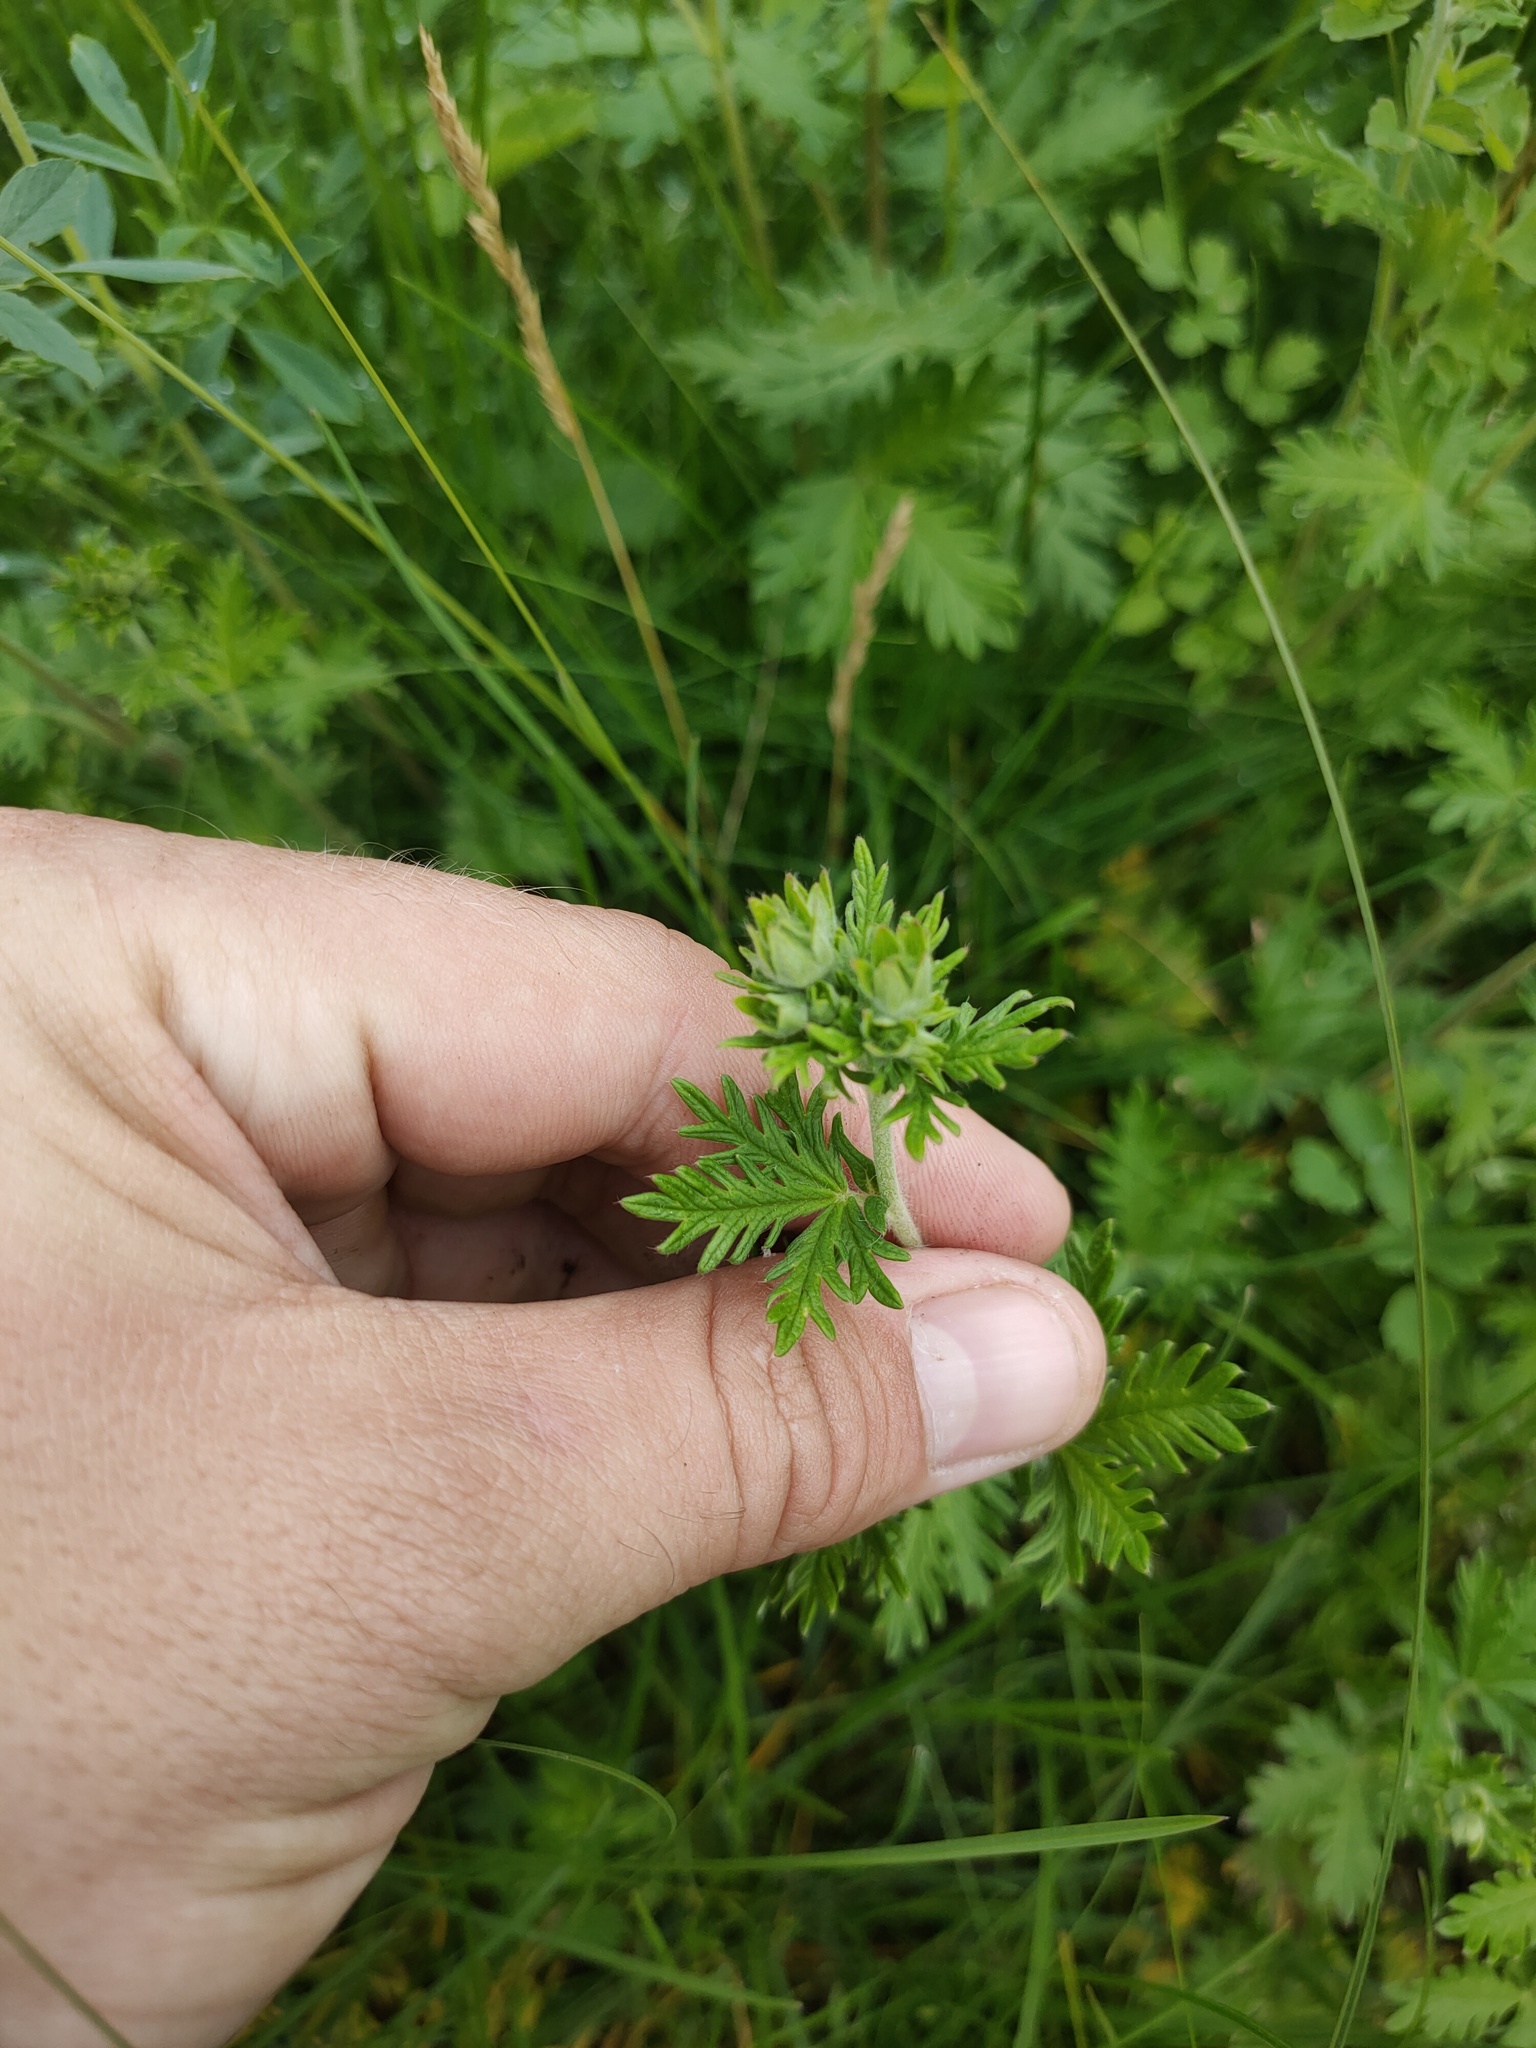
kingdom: Plantae
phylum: Tracheophyta
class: Magnoliopsida
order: Rosales
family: Rosaceae
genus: Potentilla
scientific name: Potentilla argentea
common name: Hoary cinquefoil
